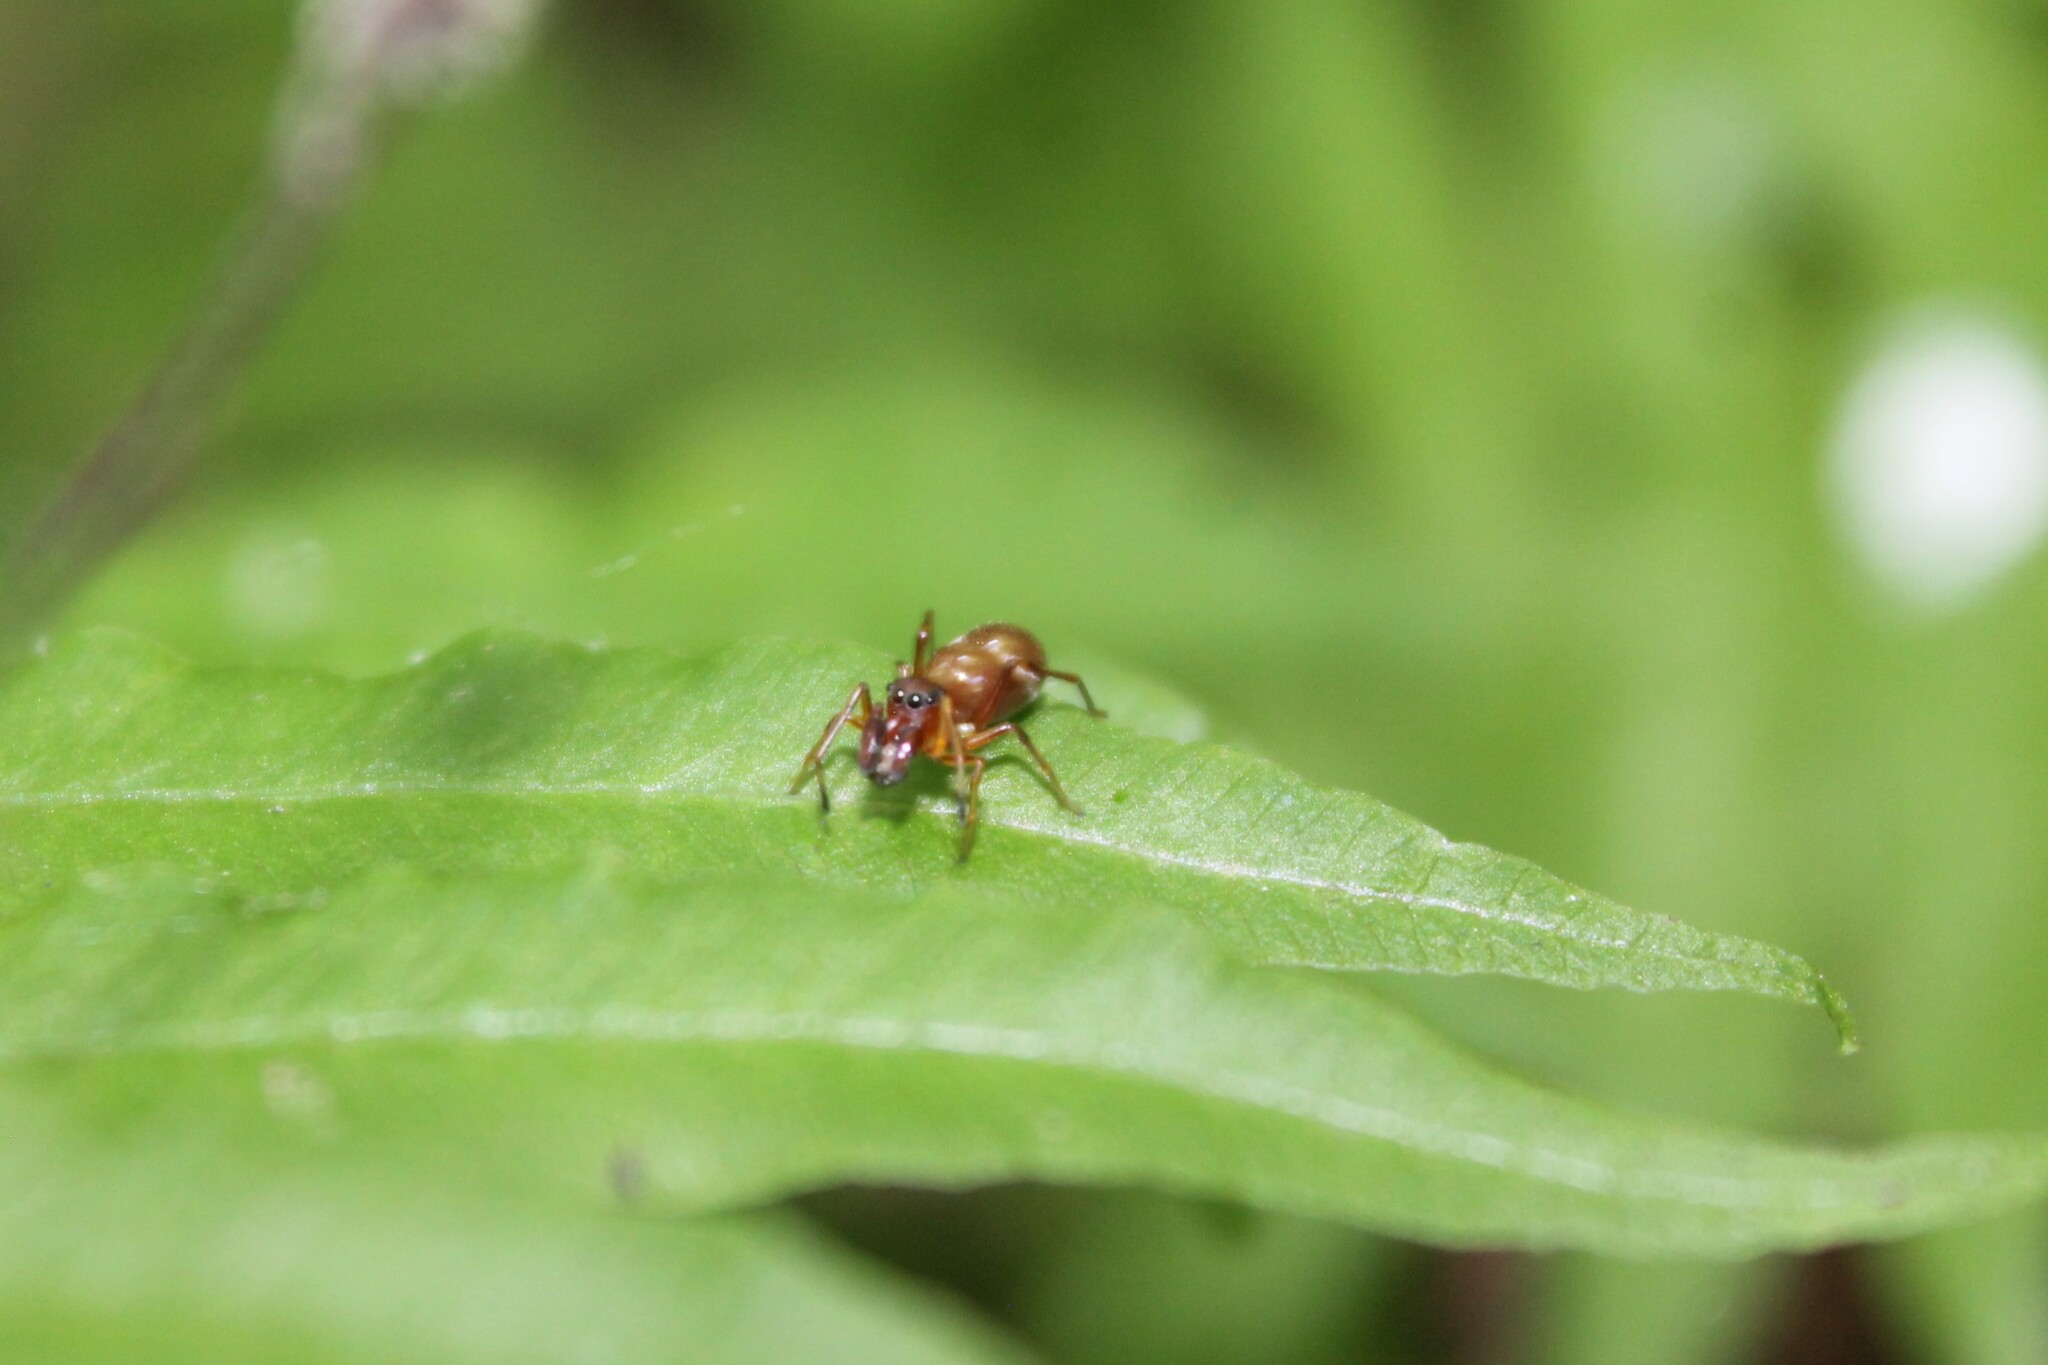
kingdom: Animalia
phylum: Arthropoda
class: Arachnida
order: Araneae
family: Salticidae
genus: Sarinda
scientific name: Sarinda hentzi
